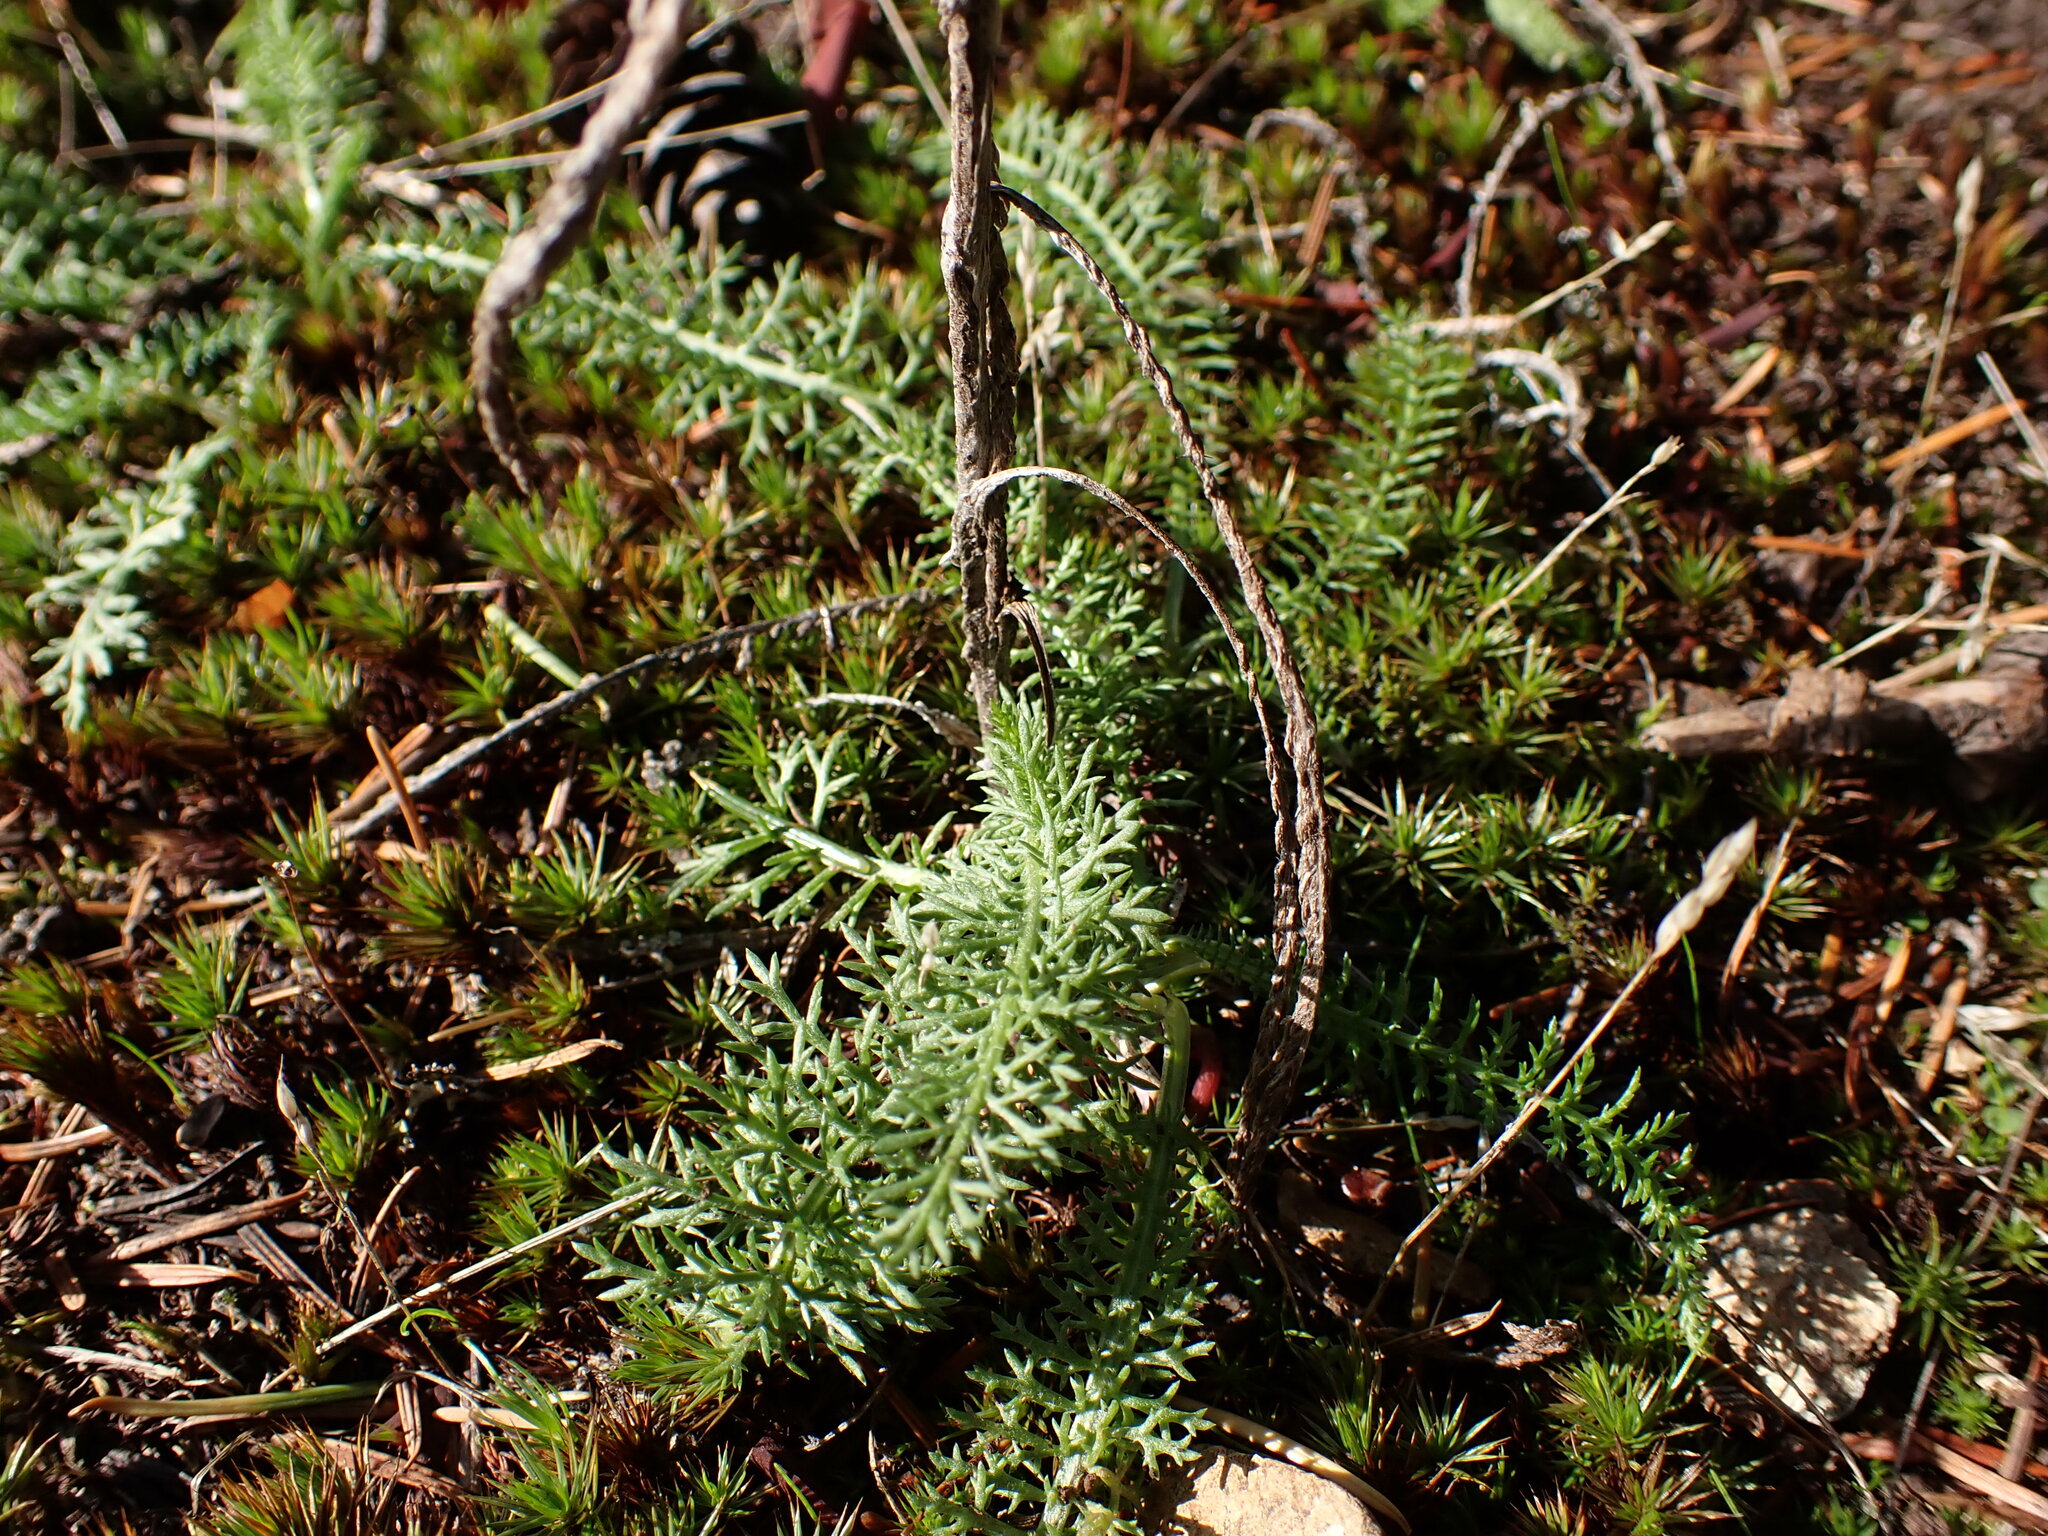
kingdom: Plantae
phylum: Tracheophyta
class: Magnoliopsida
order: Asterales
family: Asteraceae
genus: Achillea
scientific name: Achillea millefolium
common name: Yarrow
